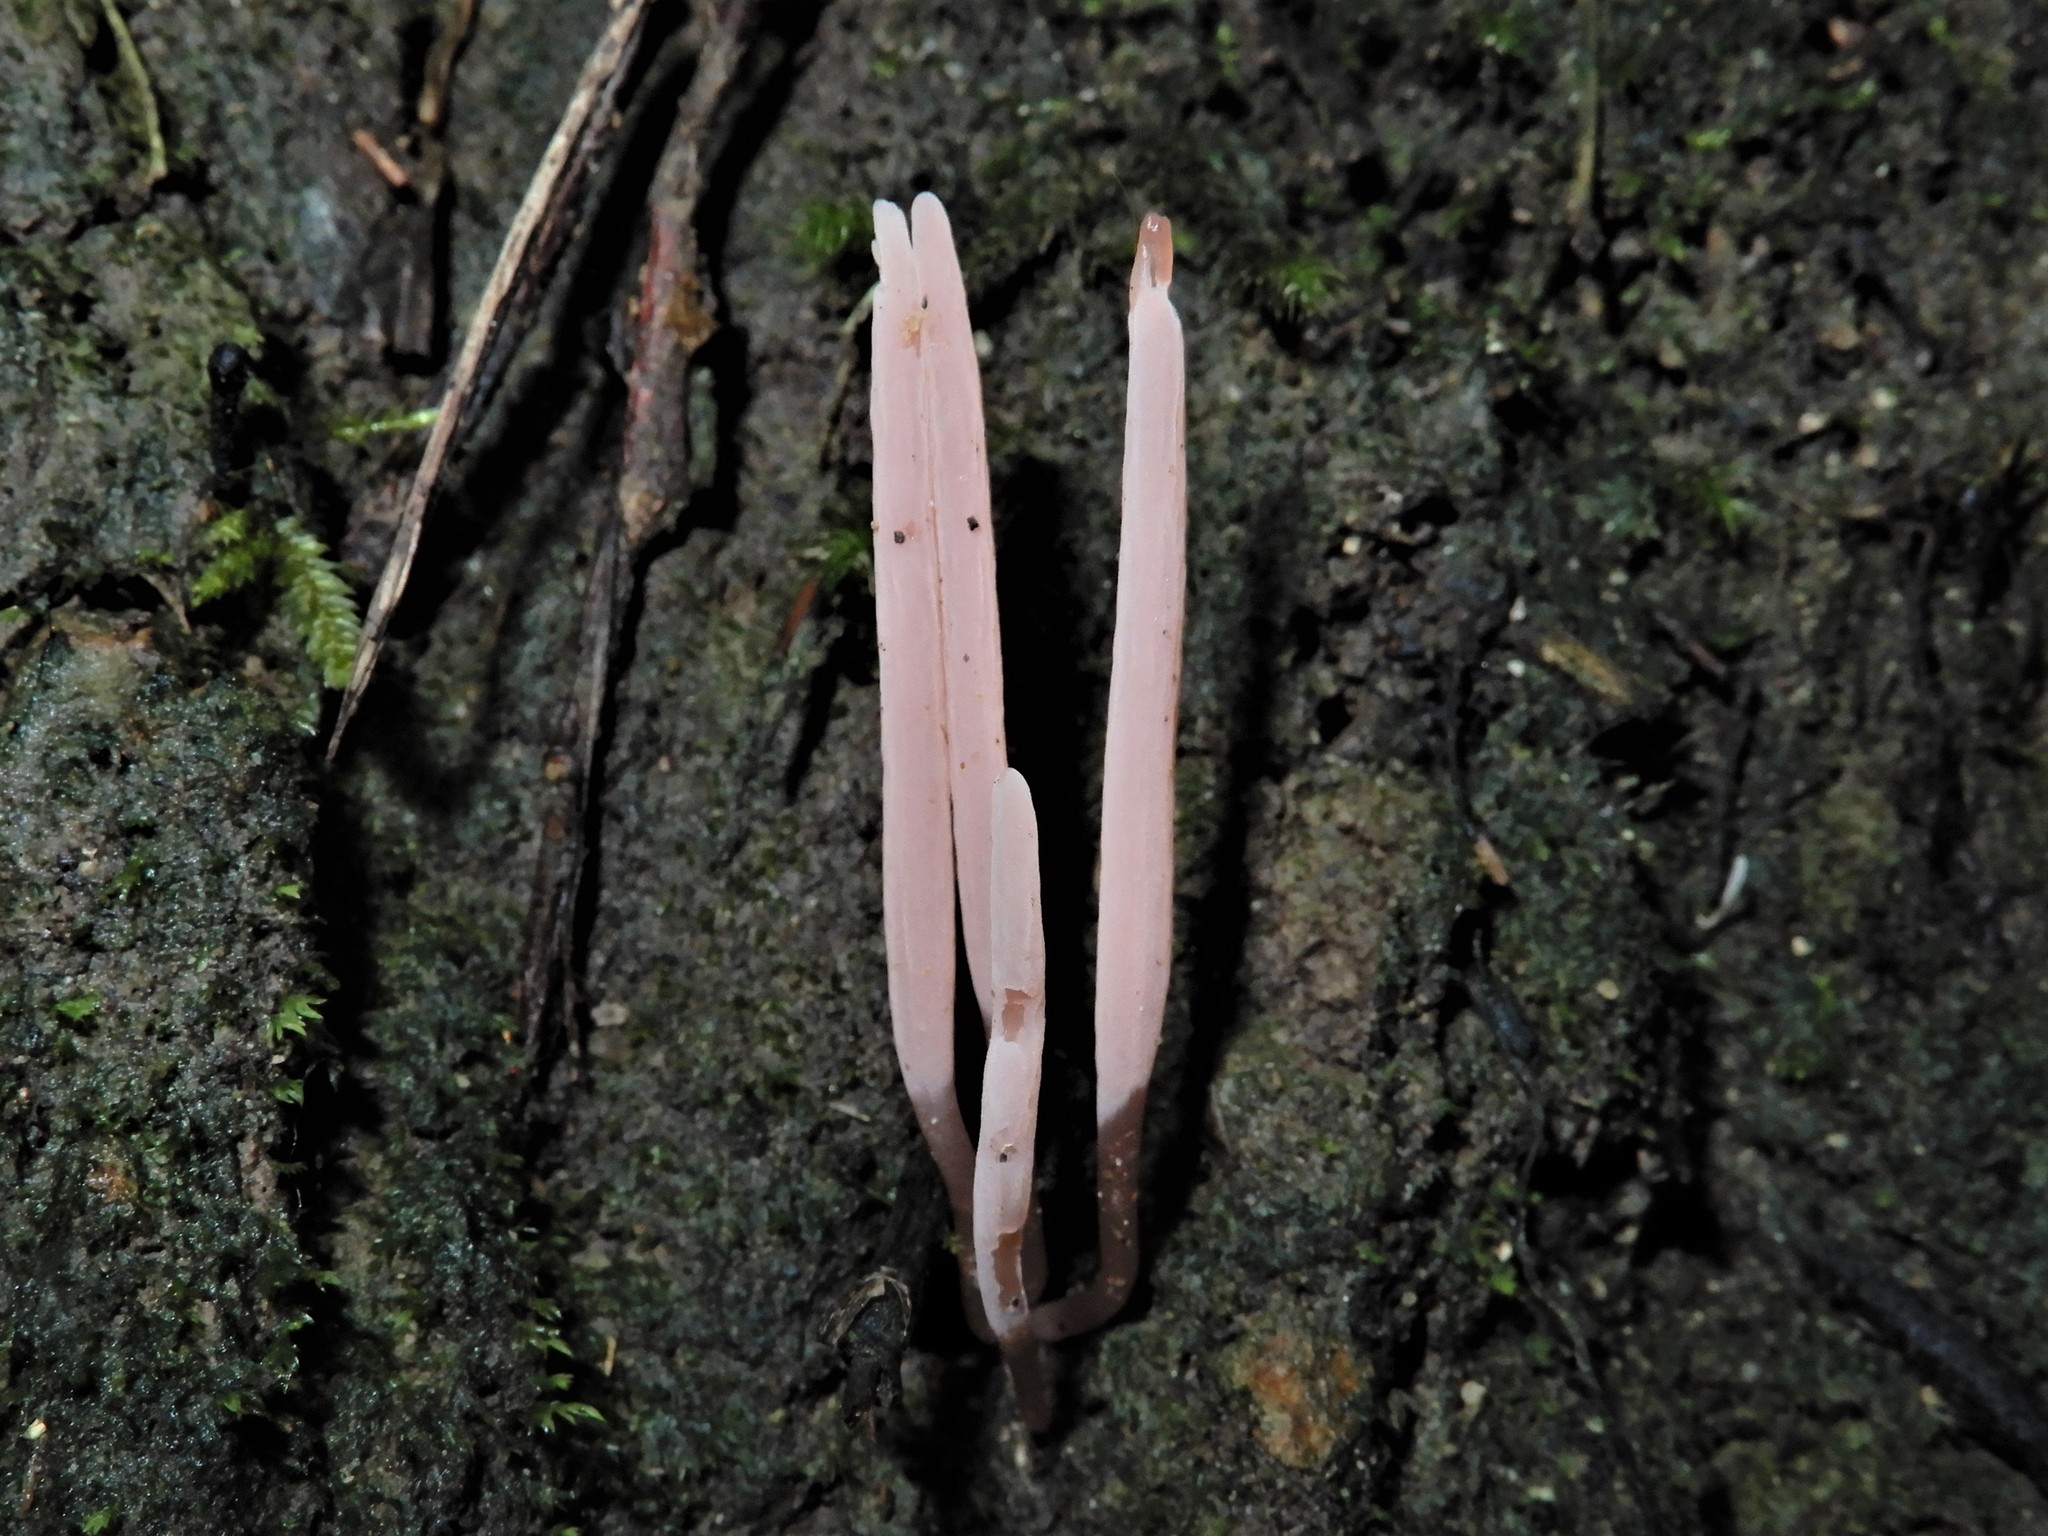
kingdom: Fungi
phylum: Basidiomycota
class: Agaricomycetes
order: Agaricales
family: Clavariaceae
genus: Clavaria
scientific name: Clavaria roseoviolacea
